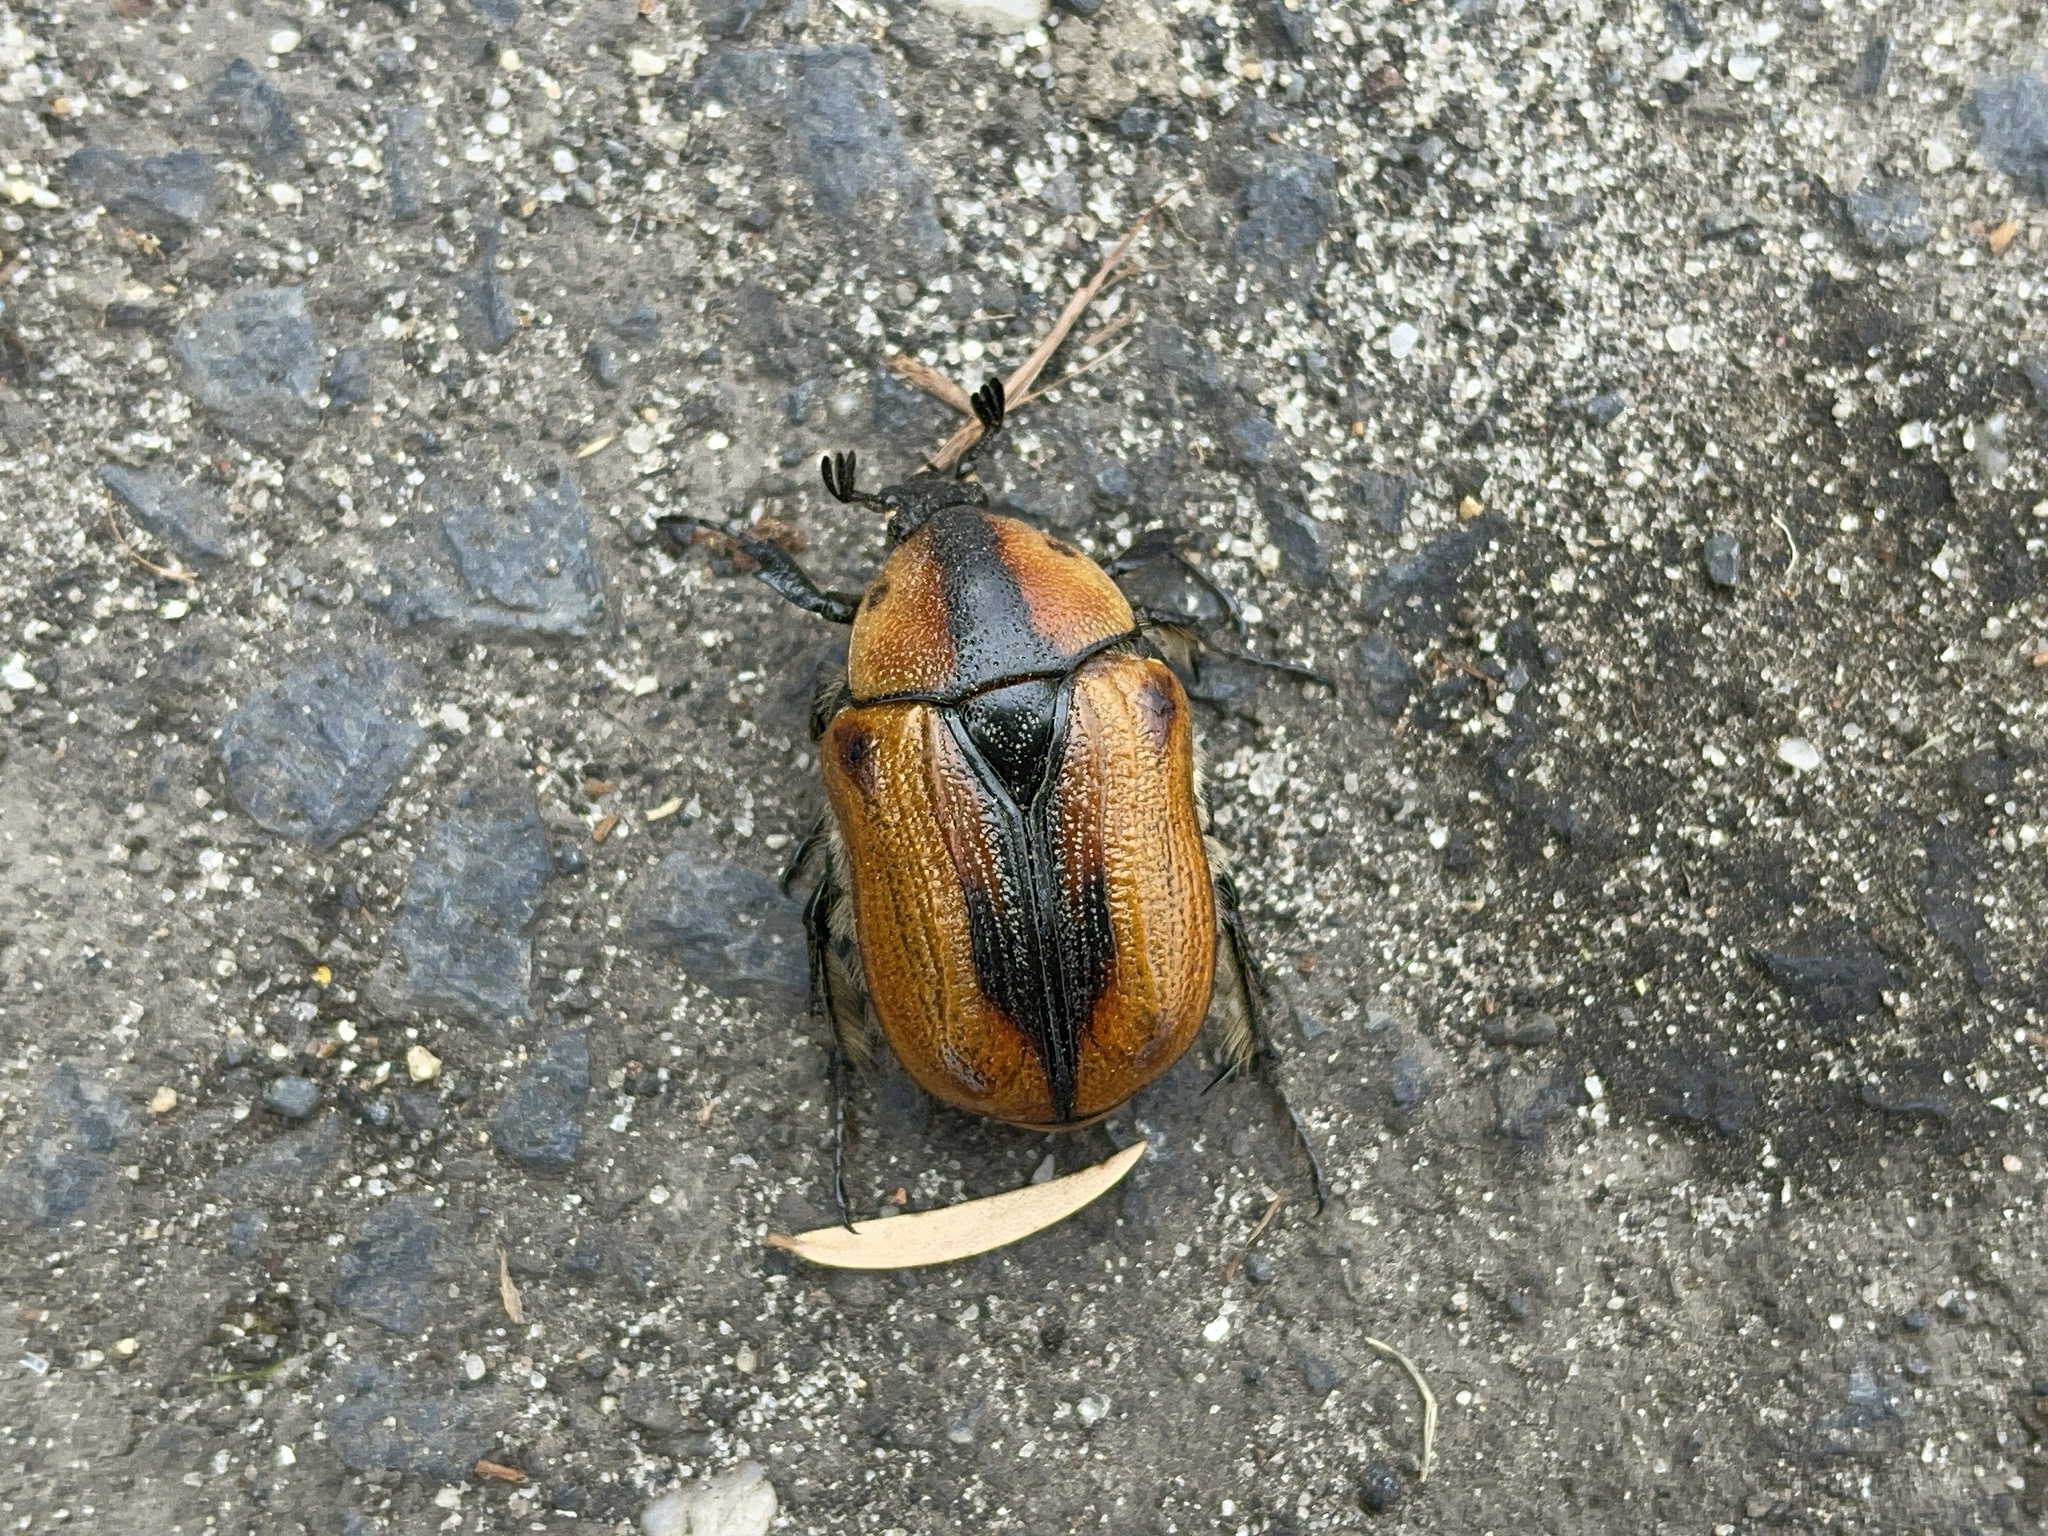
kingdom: Animalia
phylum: Arthropoda
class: Insecta
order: Coleoptera
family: Scarabaeidae
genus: Chondropyga
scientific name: Chondropyga dorsalis
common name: Cowboy beetle
